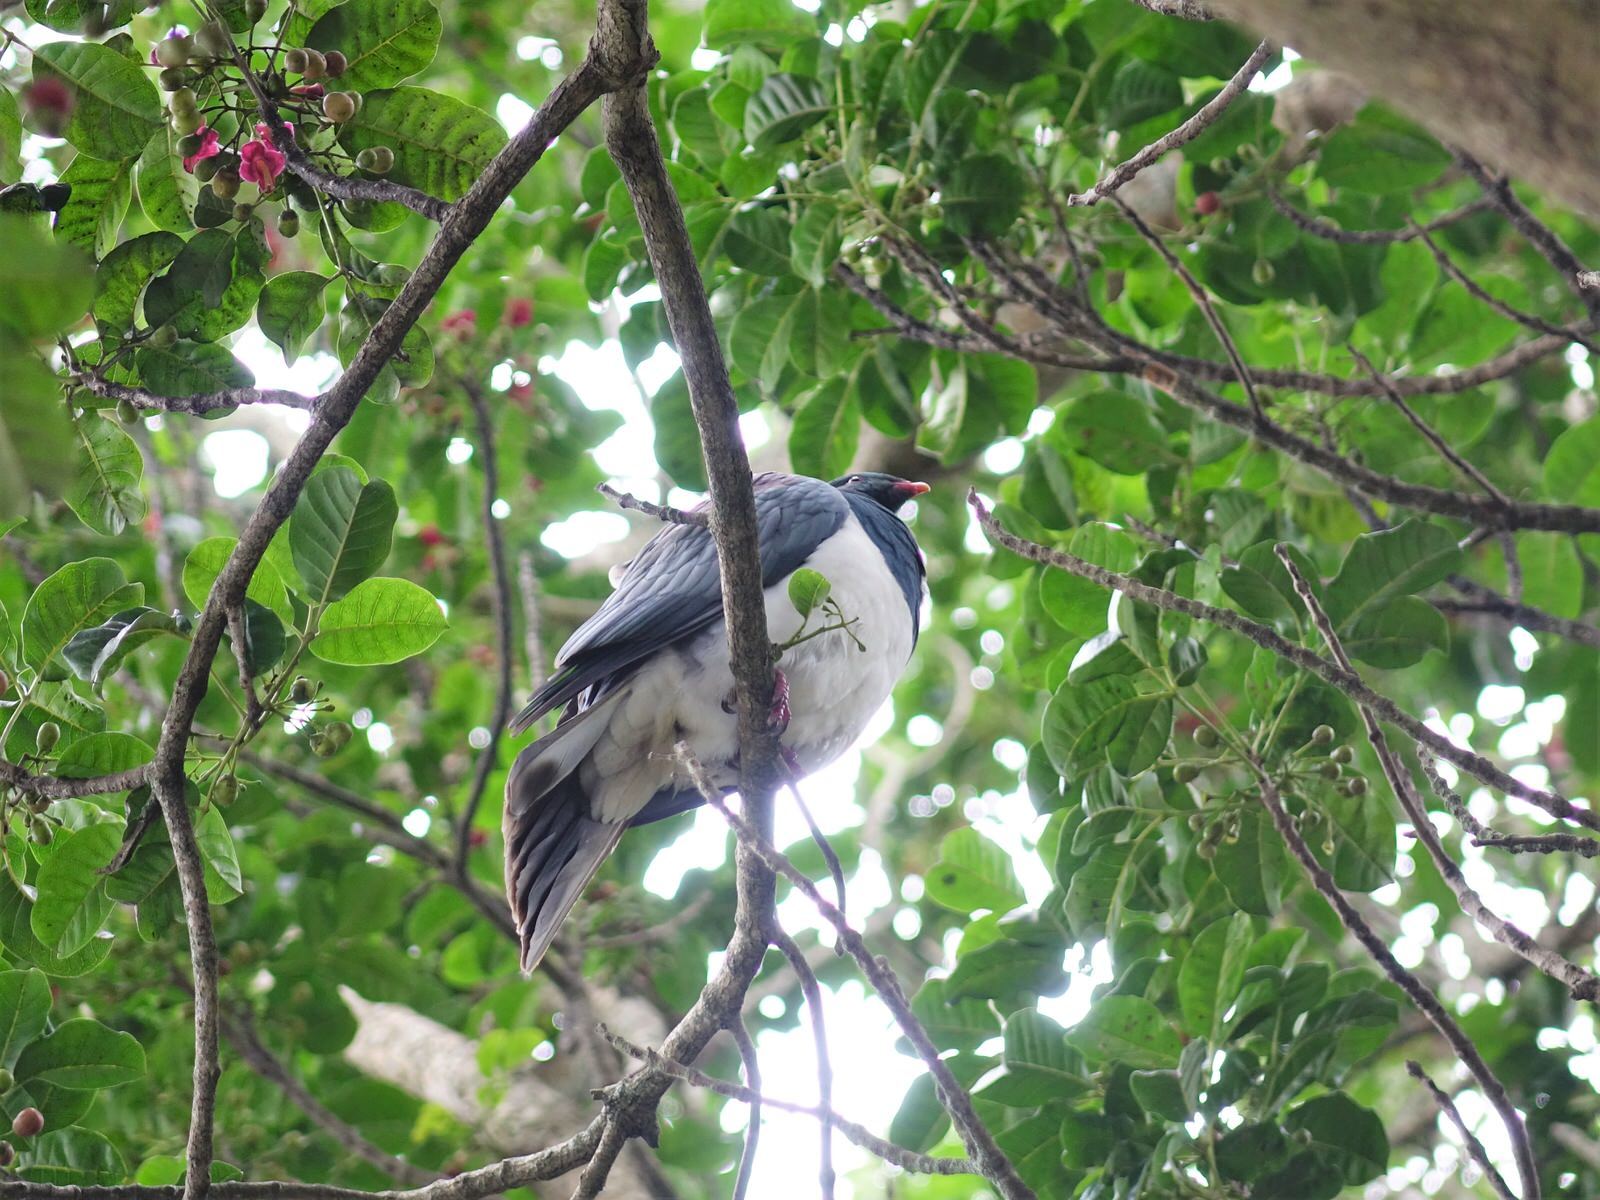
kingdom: Animalia
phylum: Chordata
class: Aves
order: Columbiformes
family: Columbidae
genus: Hemiphaga
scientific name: Hemiphaga novaeseelandiae
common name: New zealand pigeon
